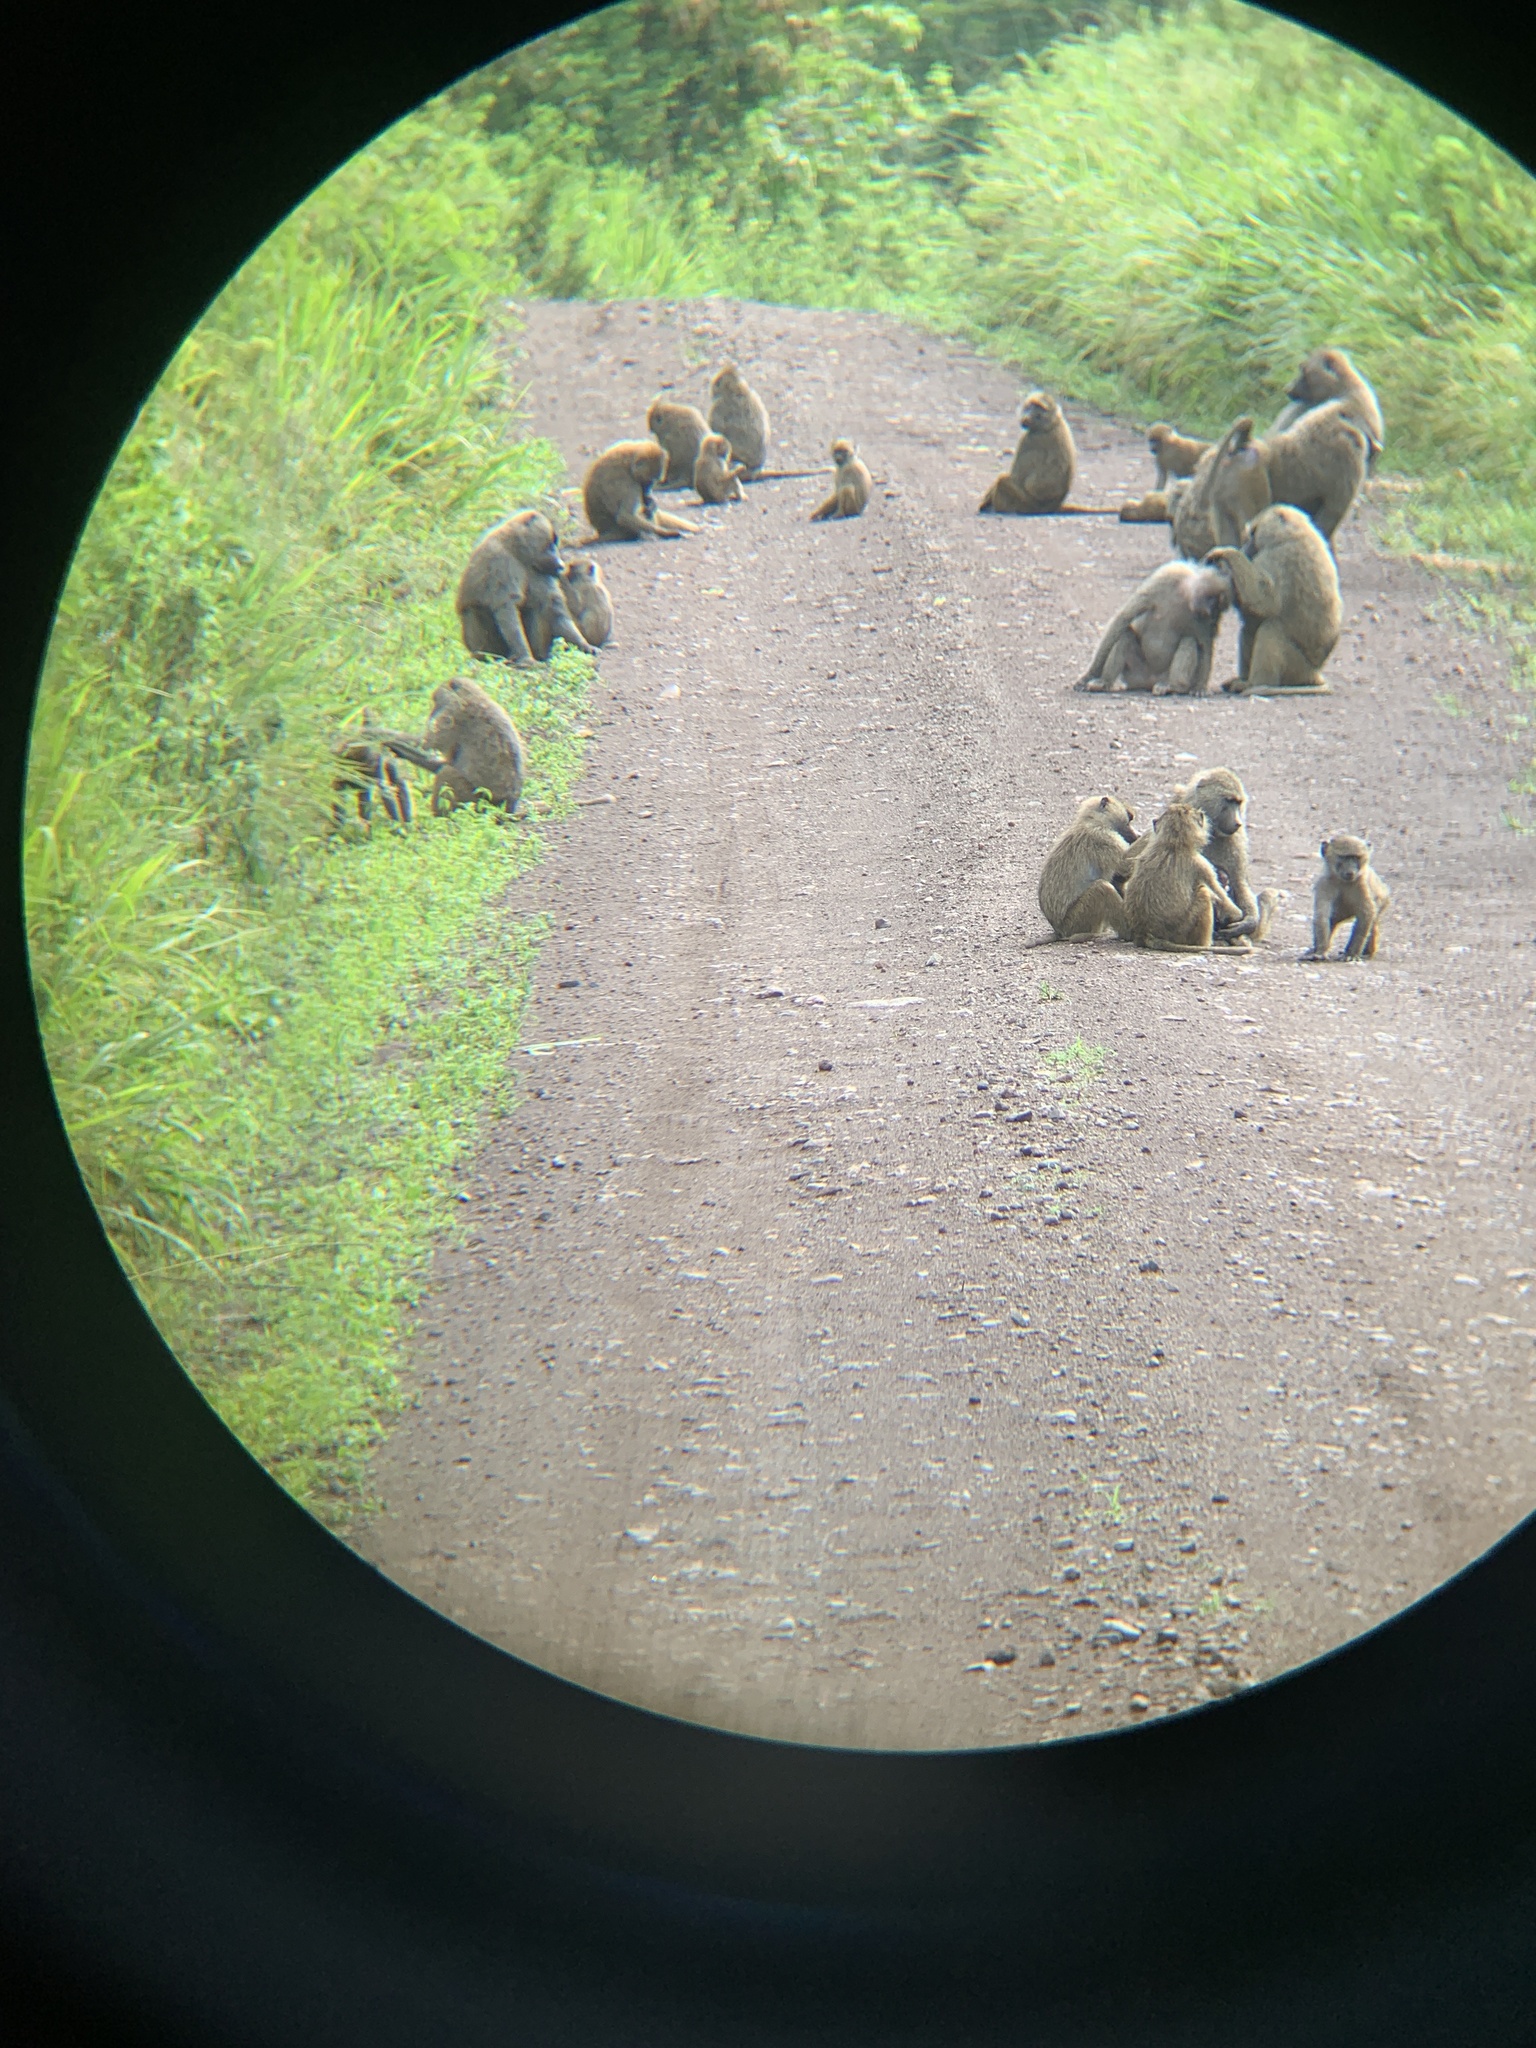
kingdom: Animalia
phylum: Chordata
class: Mammalia
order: Primates
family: Cercopithecidae
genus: Papio
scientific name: Papio anubis
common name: Olive baboon
